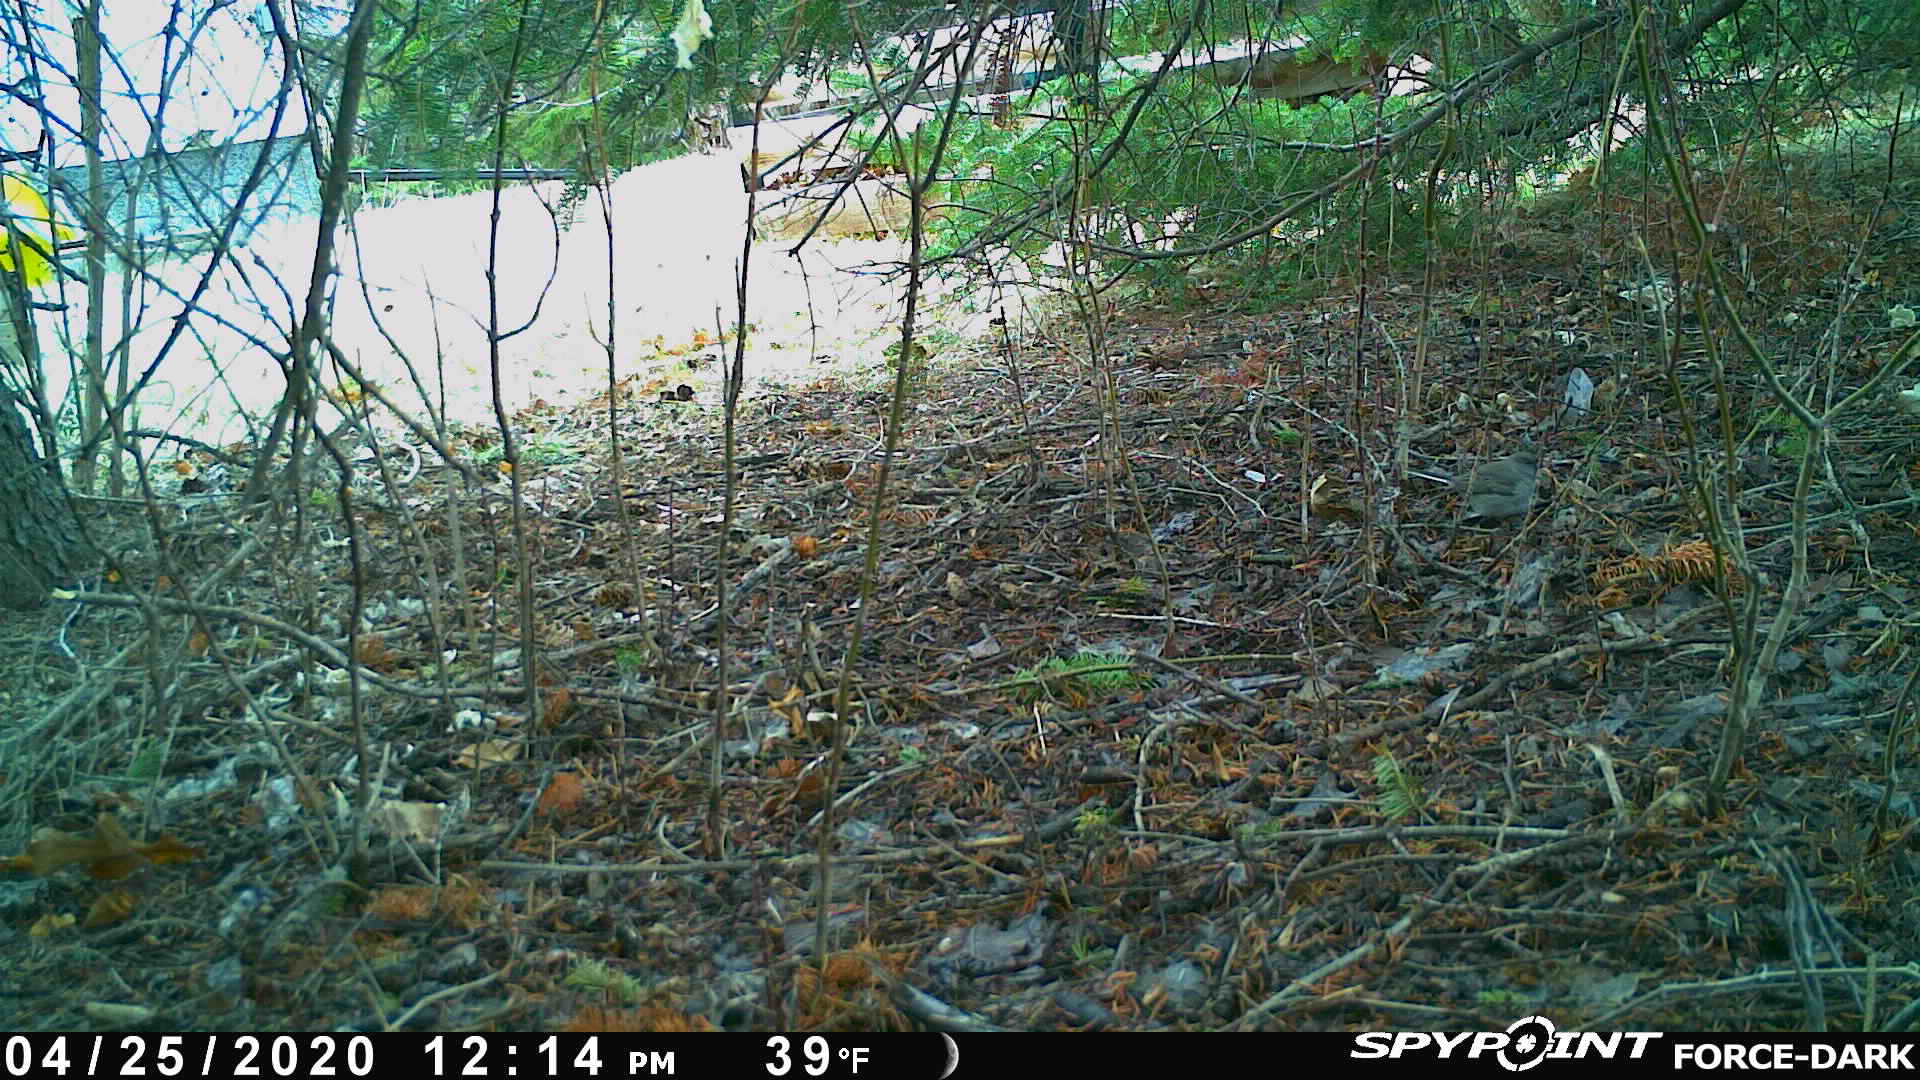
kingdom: Animalia
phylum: Chordata
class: Aves
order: Passeriformes
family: Passerellidae
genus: Junco
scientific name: Junco hyemalis
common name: Dark-eyed junco
